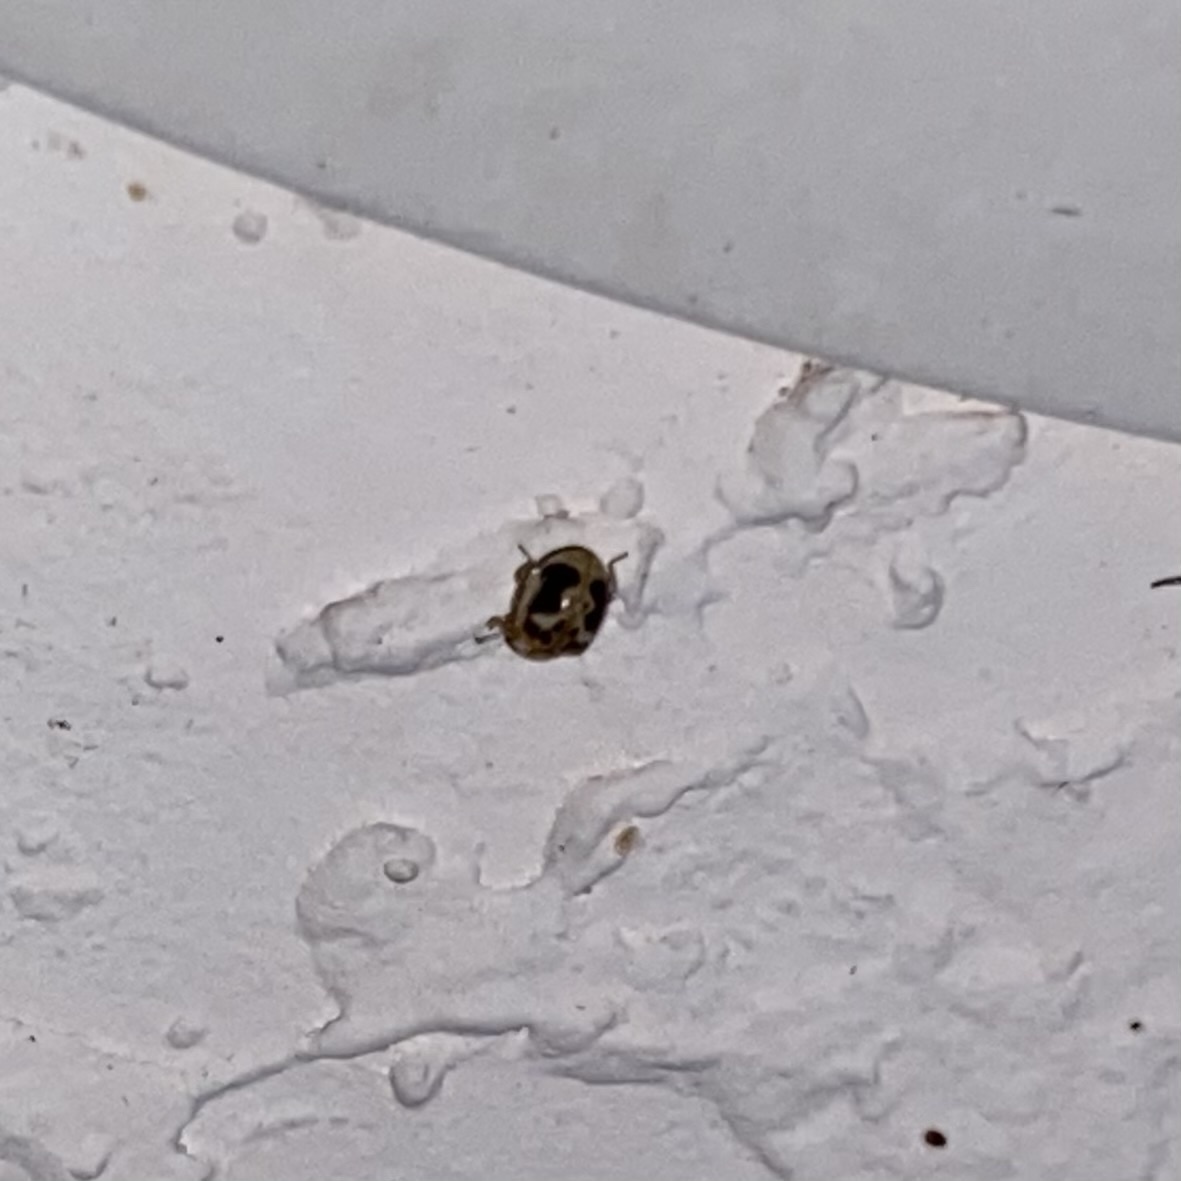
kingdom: Animalia
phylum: Arthropoda
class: Insecta
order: Coleoptera
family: Coccinellidae
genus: Psyllobora
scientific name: Psyllobora renifer
